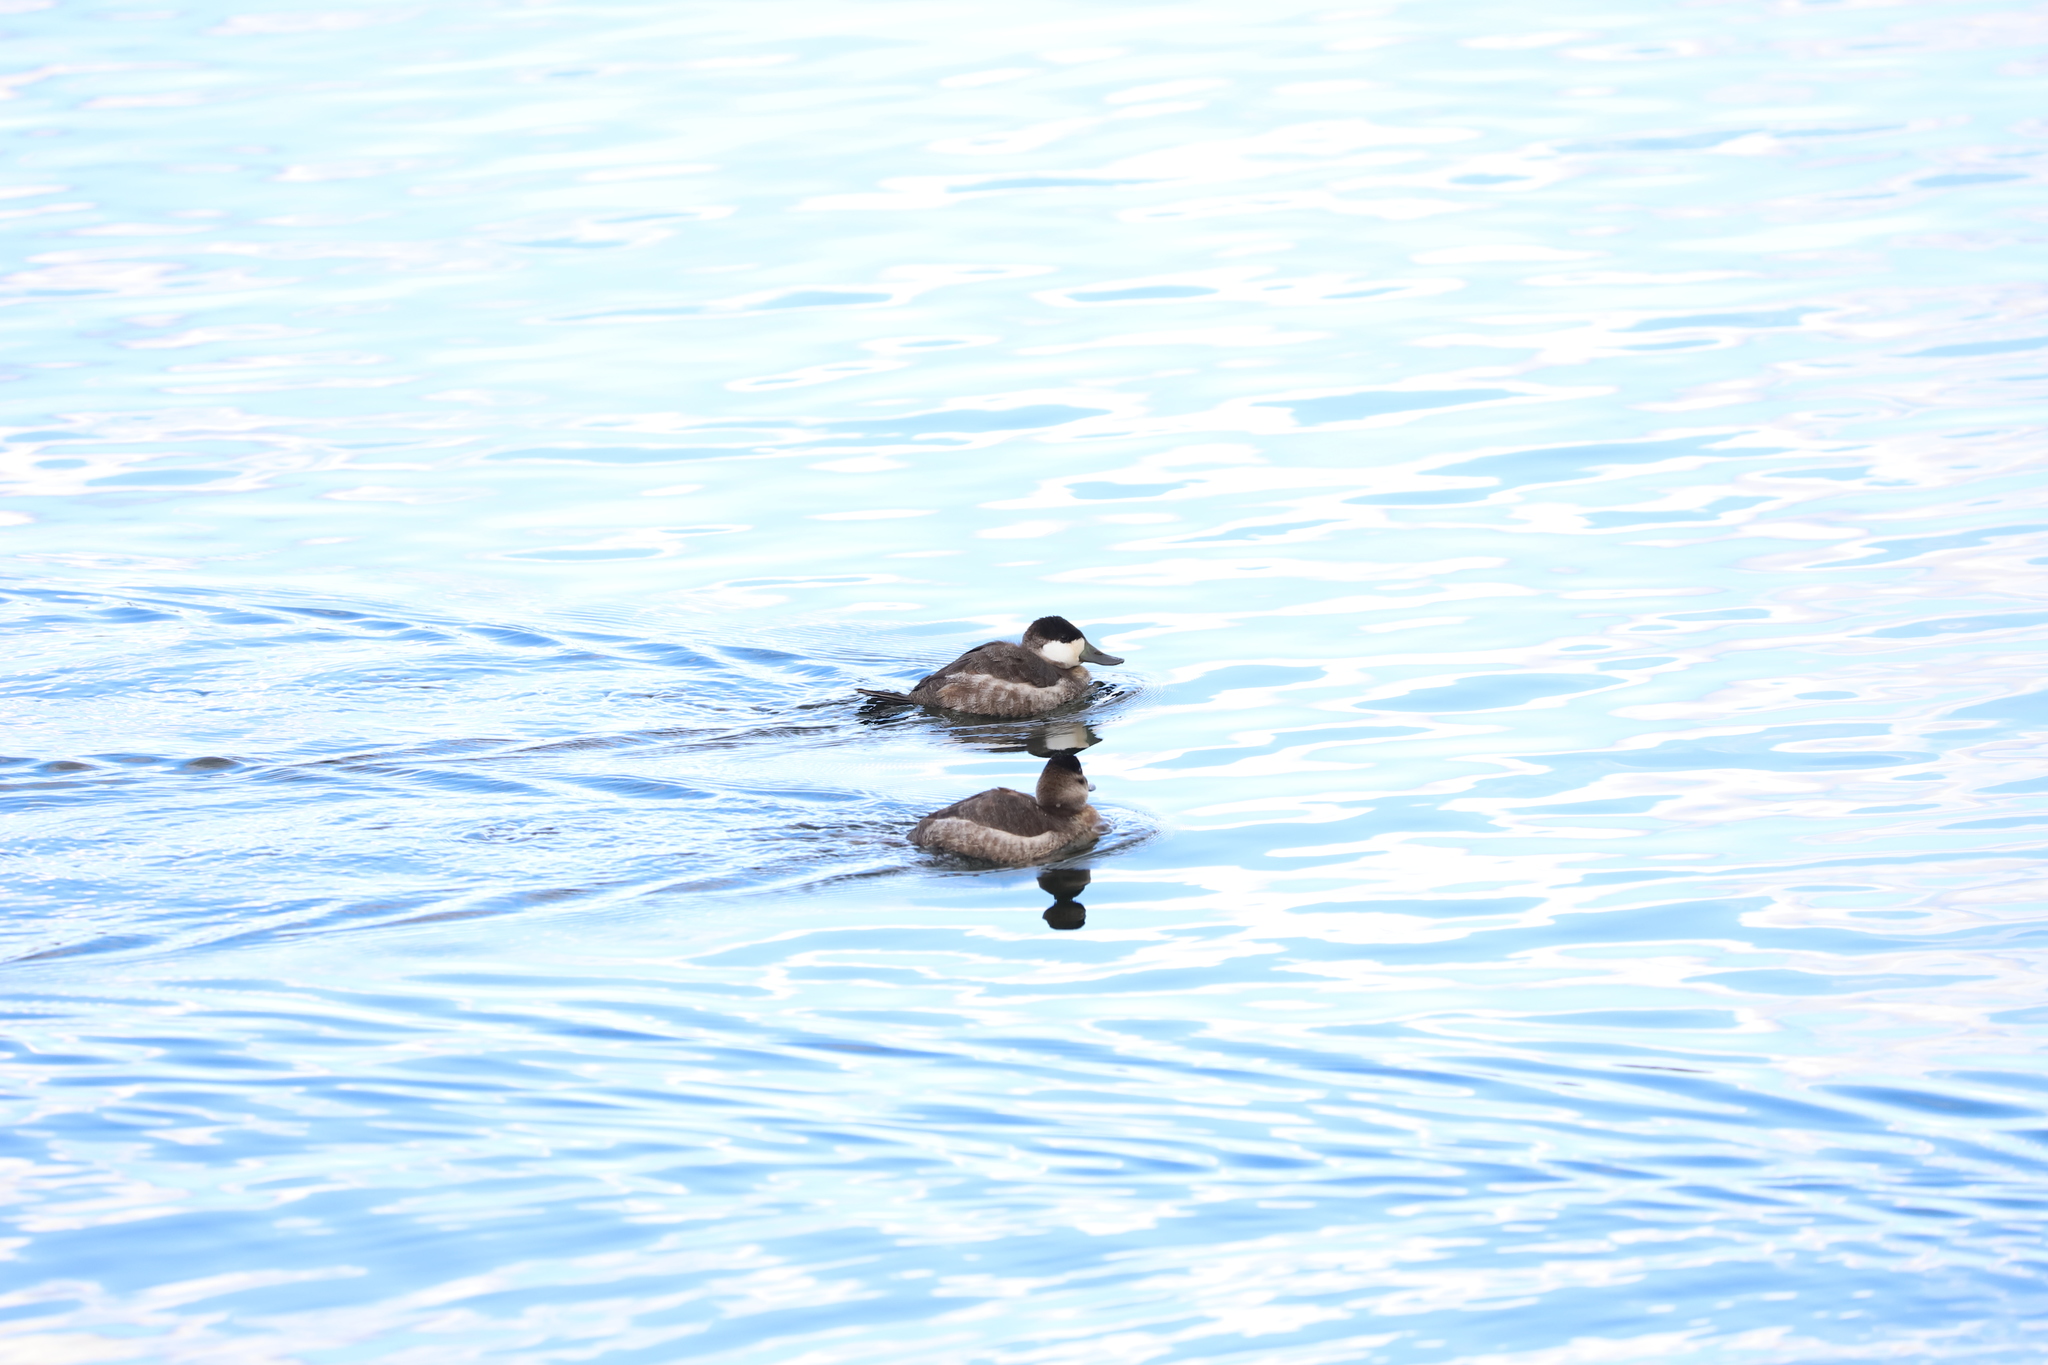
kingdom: Animalia
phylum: Chordata
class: Aves
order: Anseriformes
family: Anatidae
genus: Oxyura
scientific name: Oxyura jamaicensis
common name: Ruddy duck
